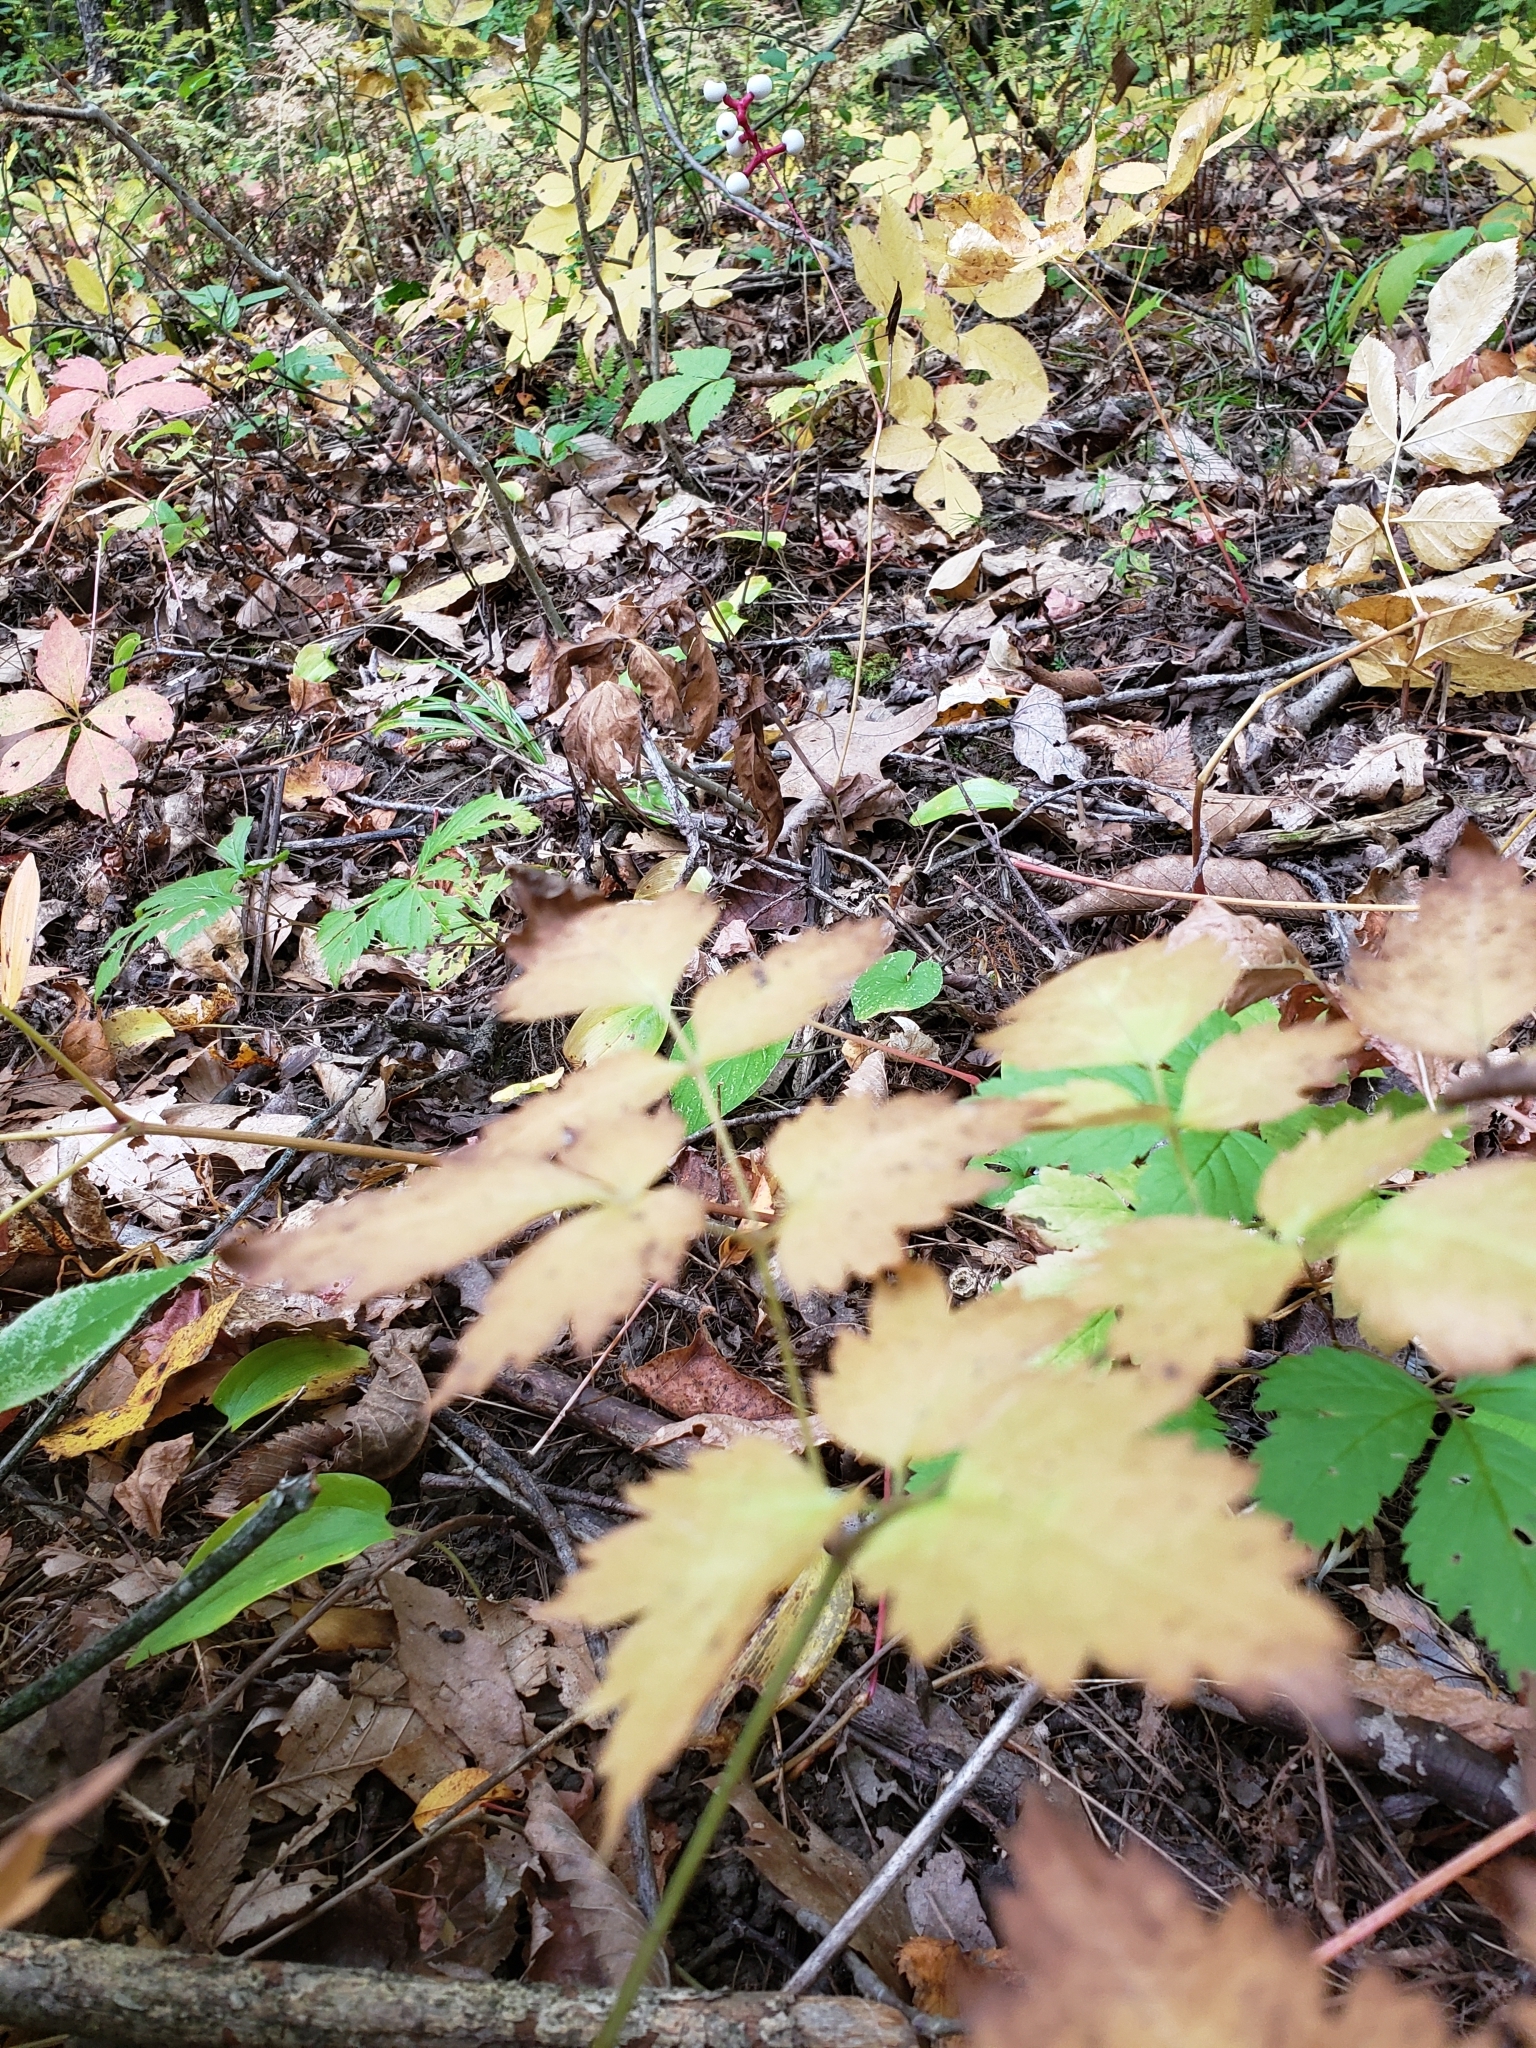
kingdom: Plantae
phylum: Tracheophyta
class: Magnoliopsida
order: Ranunculales
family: Ranunculaceae
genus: Actaea
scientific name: Actaea pachypoda
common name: Doll's-eyes
